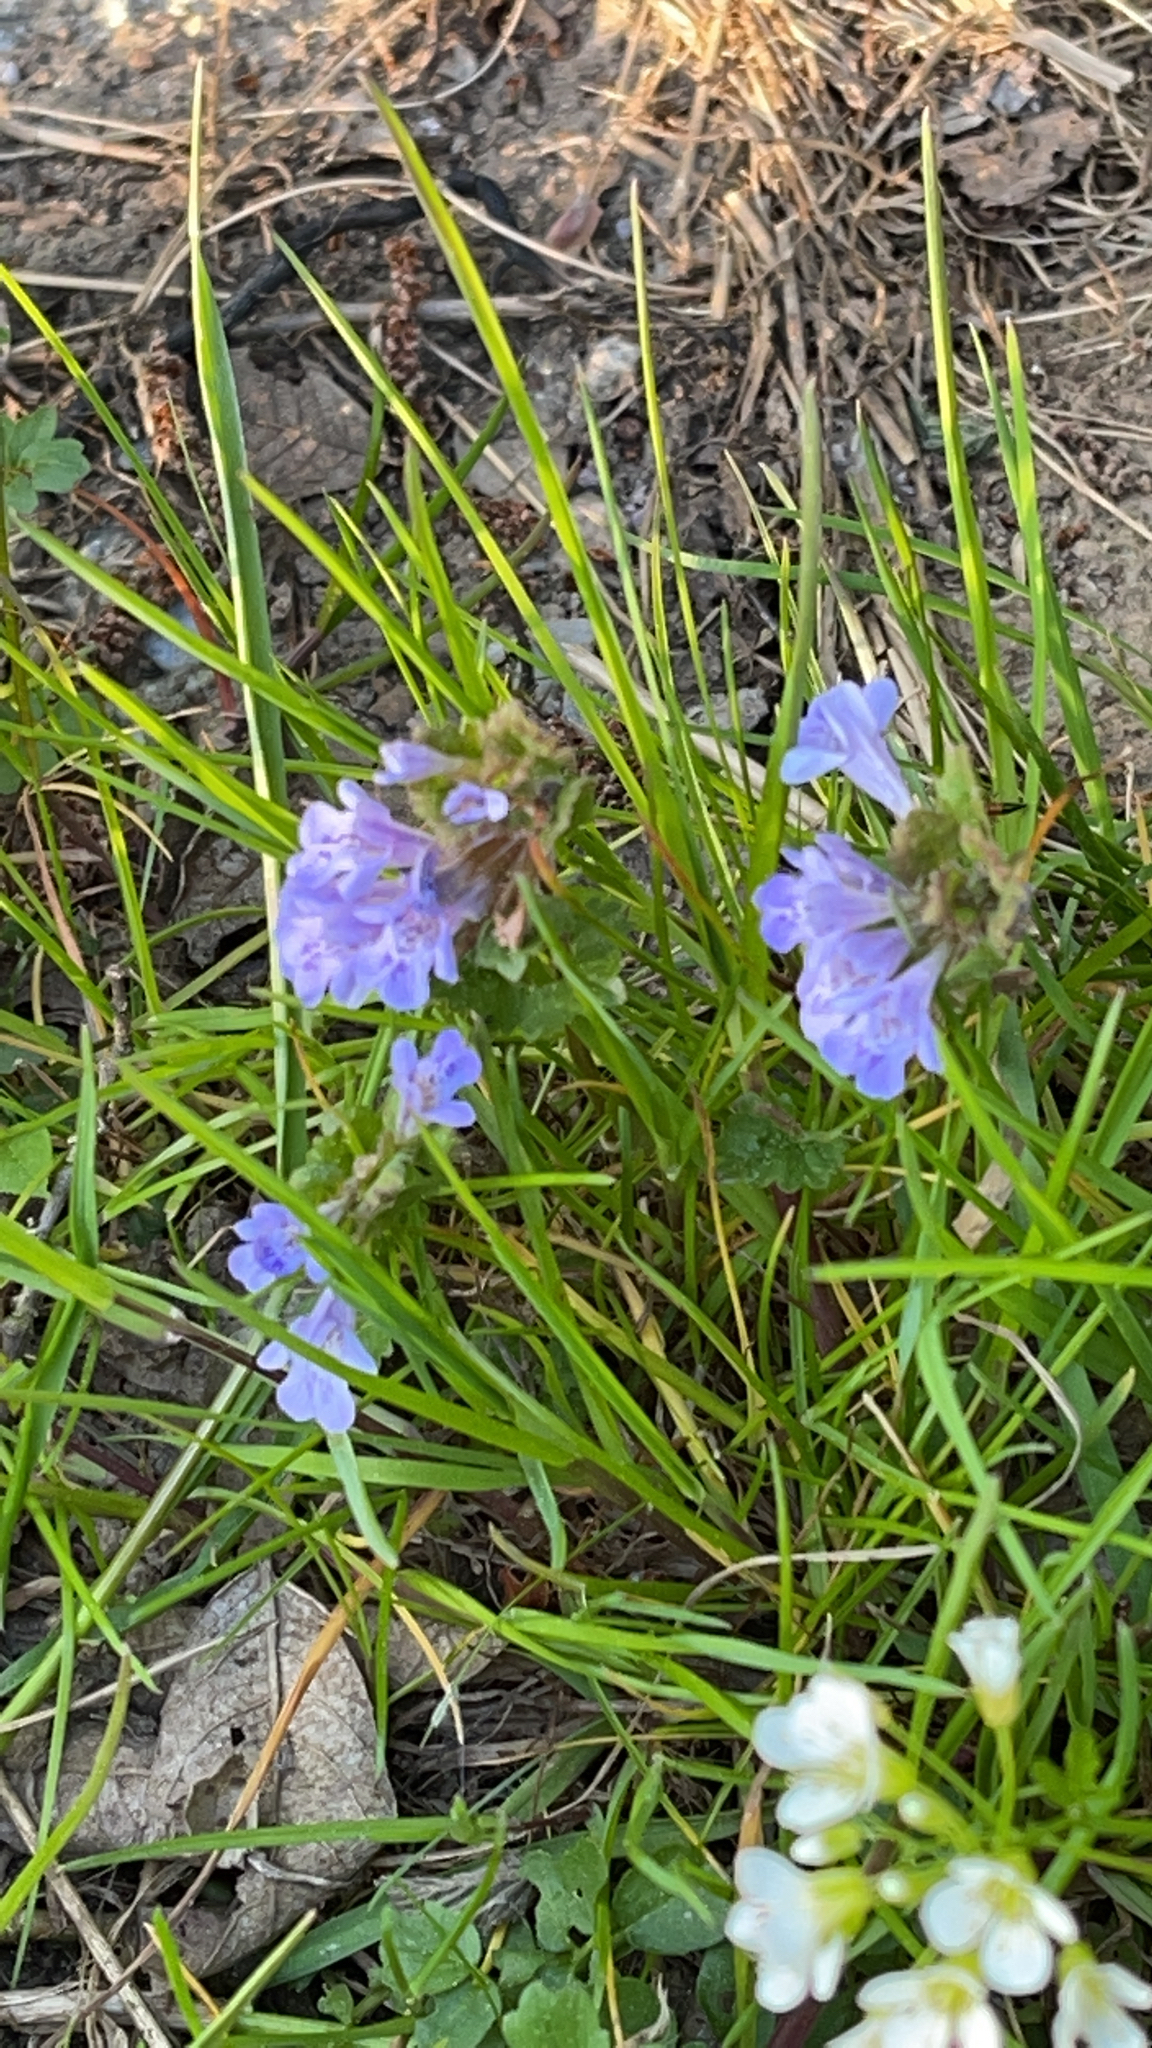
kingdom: Plantae
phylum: Tracheophyta
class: Magnoliopsida
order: Lamiales
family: Lamiaceae
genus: Glechoma
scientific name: Glechoma hederacea
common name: Ground ivy
